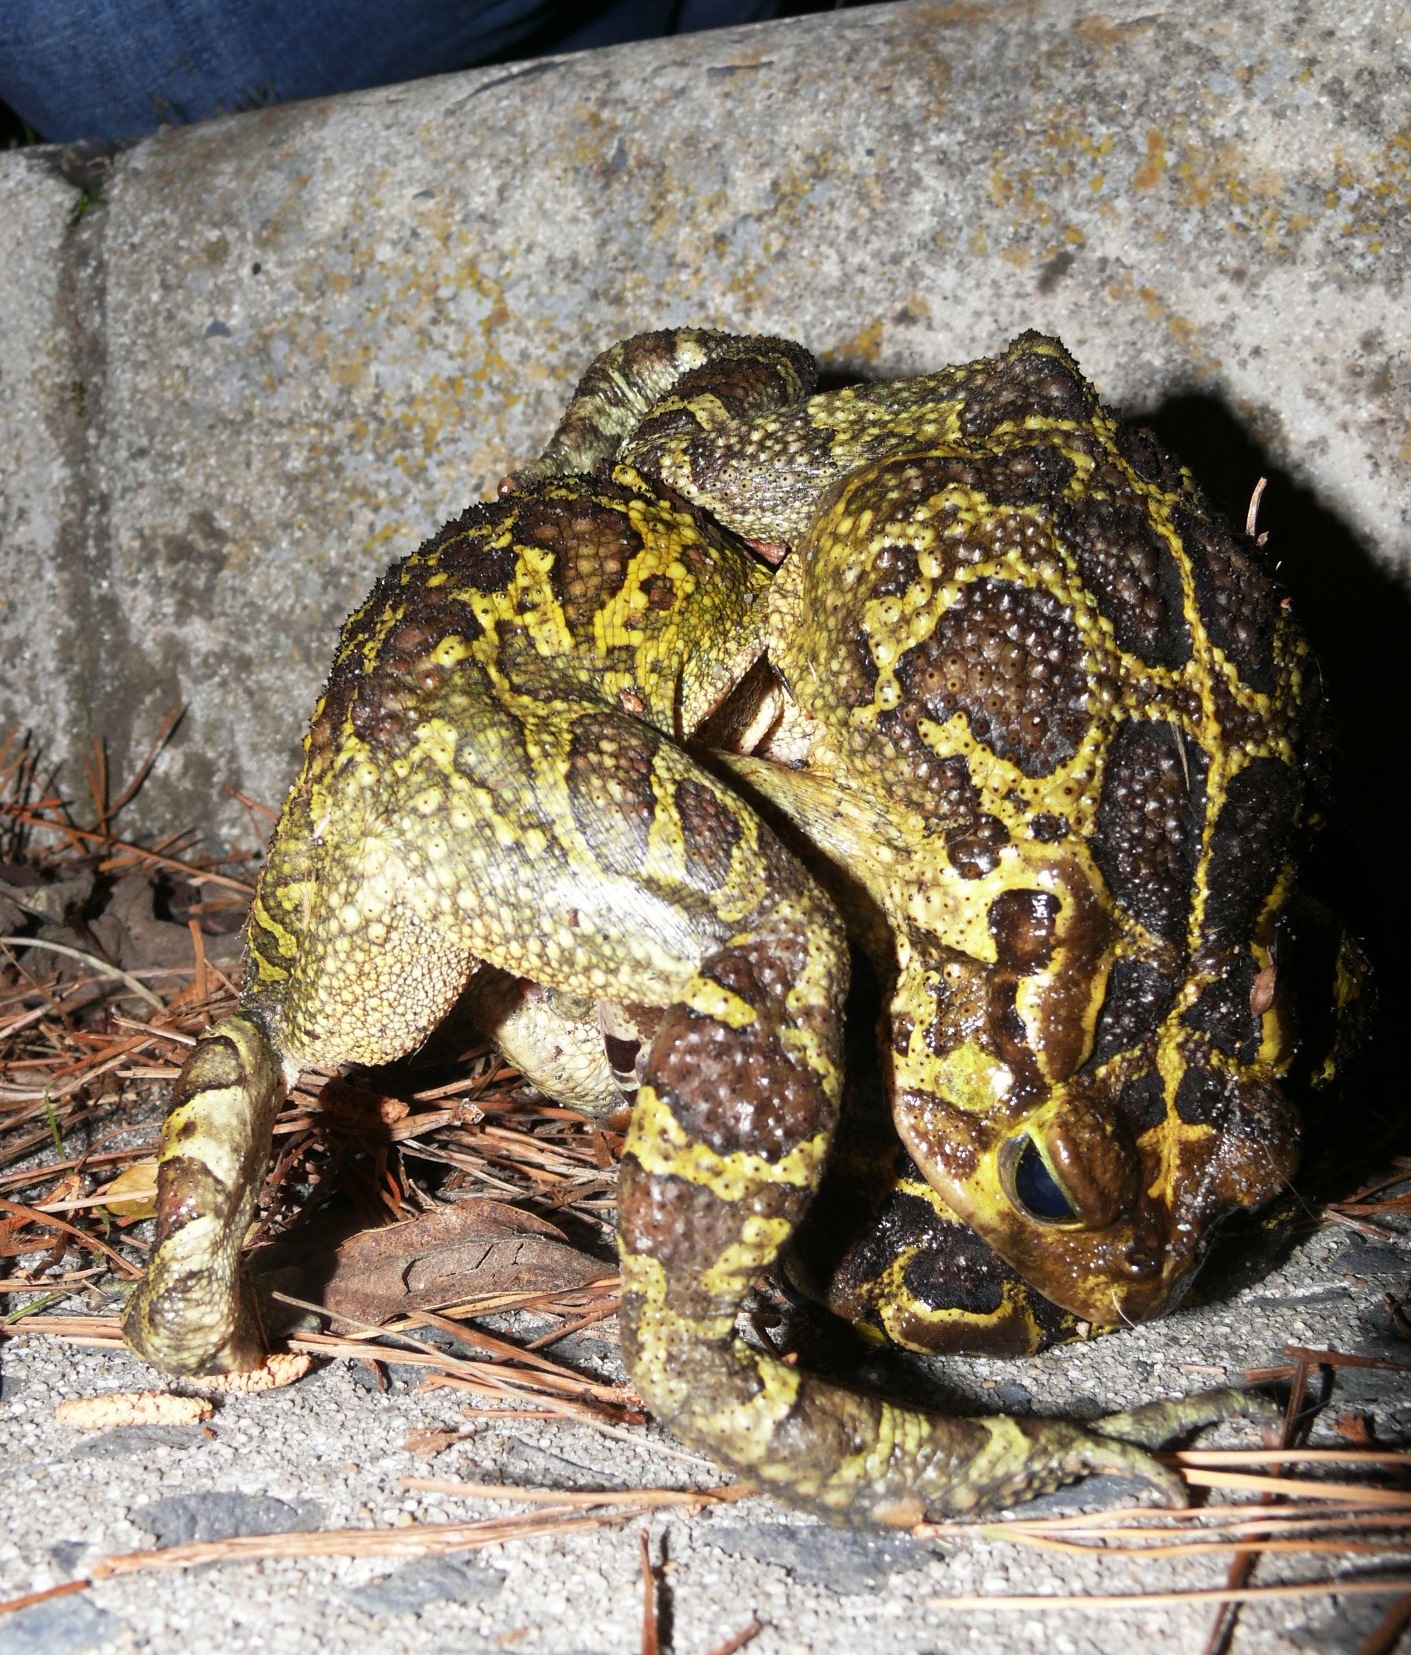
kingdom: Animalia
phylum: Chordata
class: Amphibia
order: Anura
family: Bufonidae
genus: Sclerophrys
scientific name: Sclerophrys pantherina
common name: Panther toad
